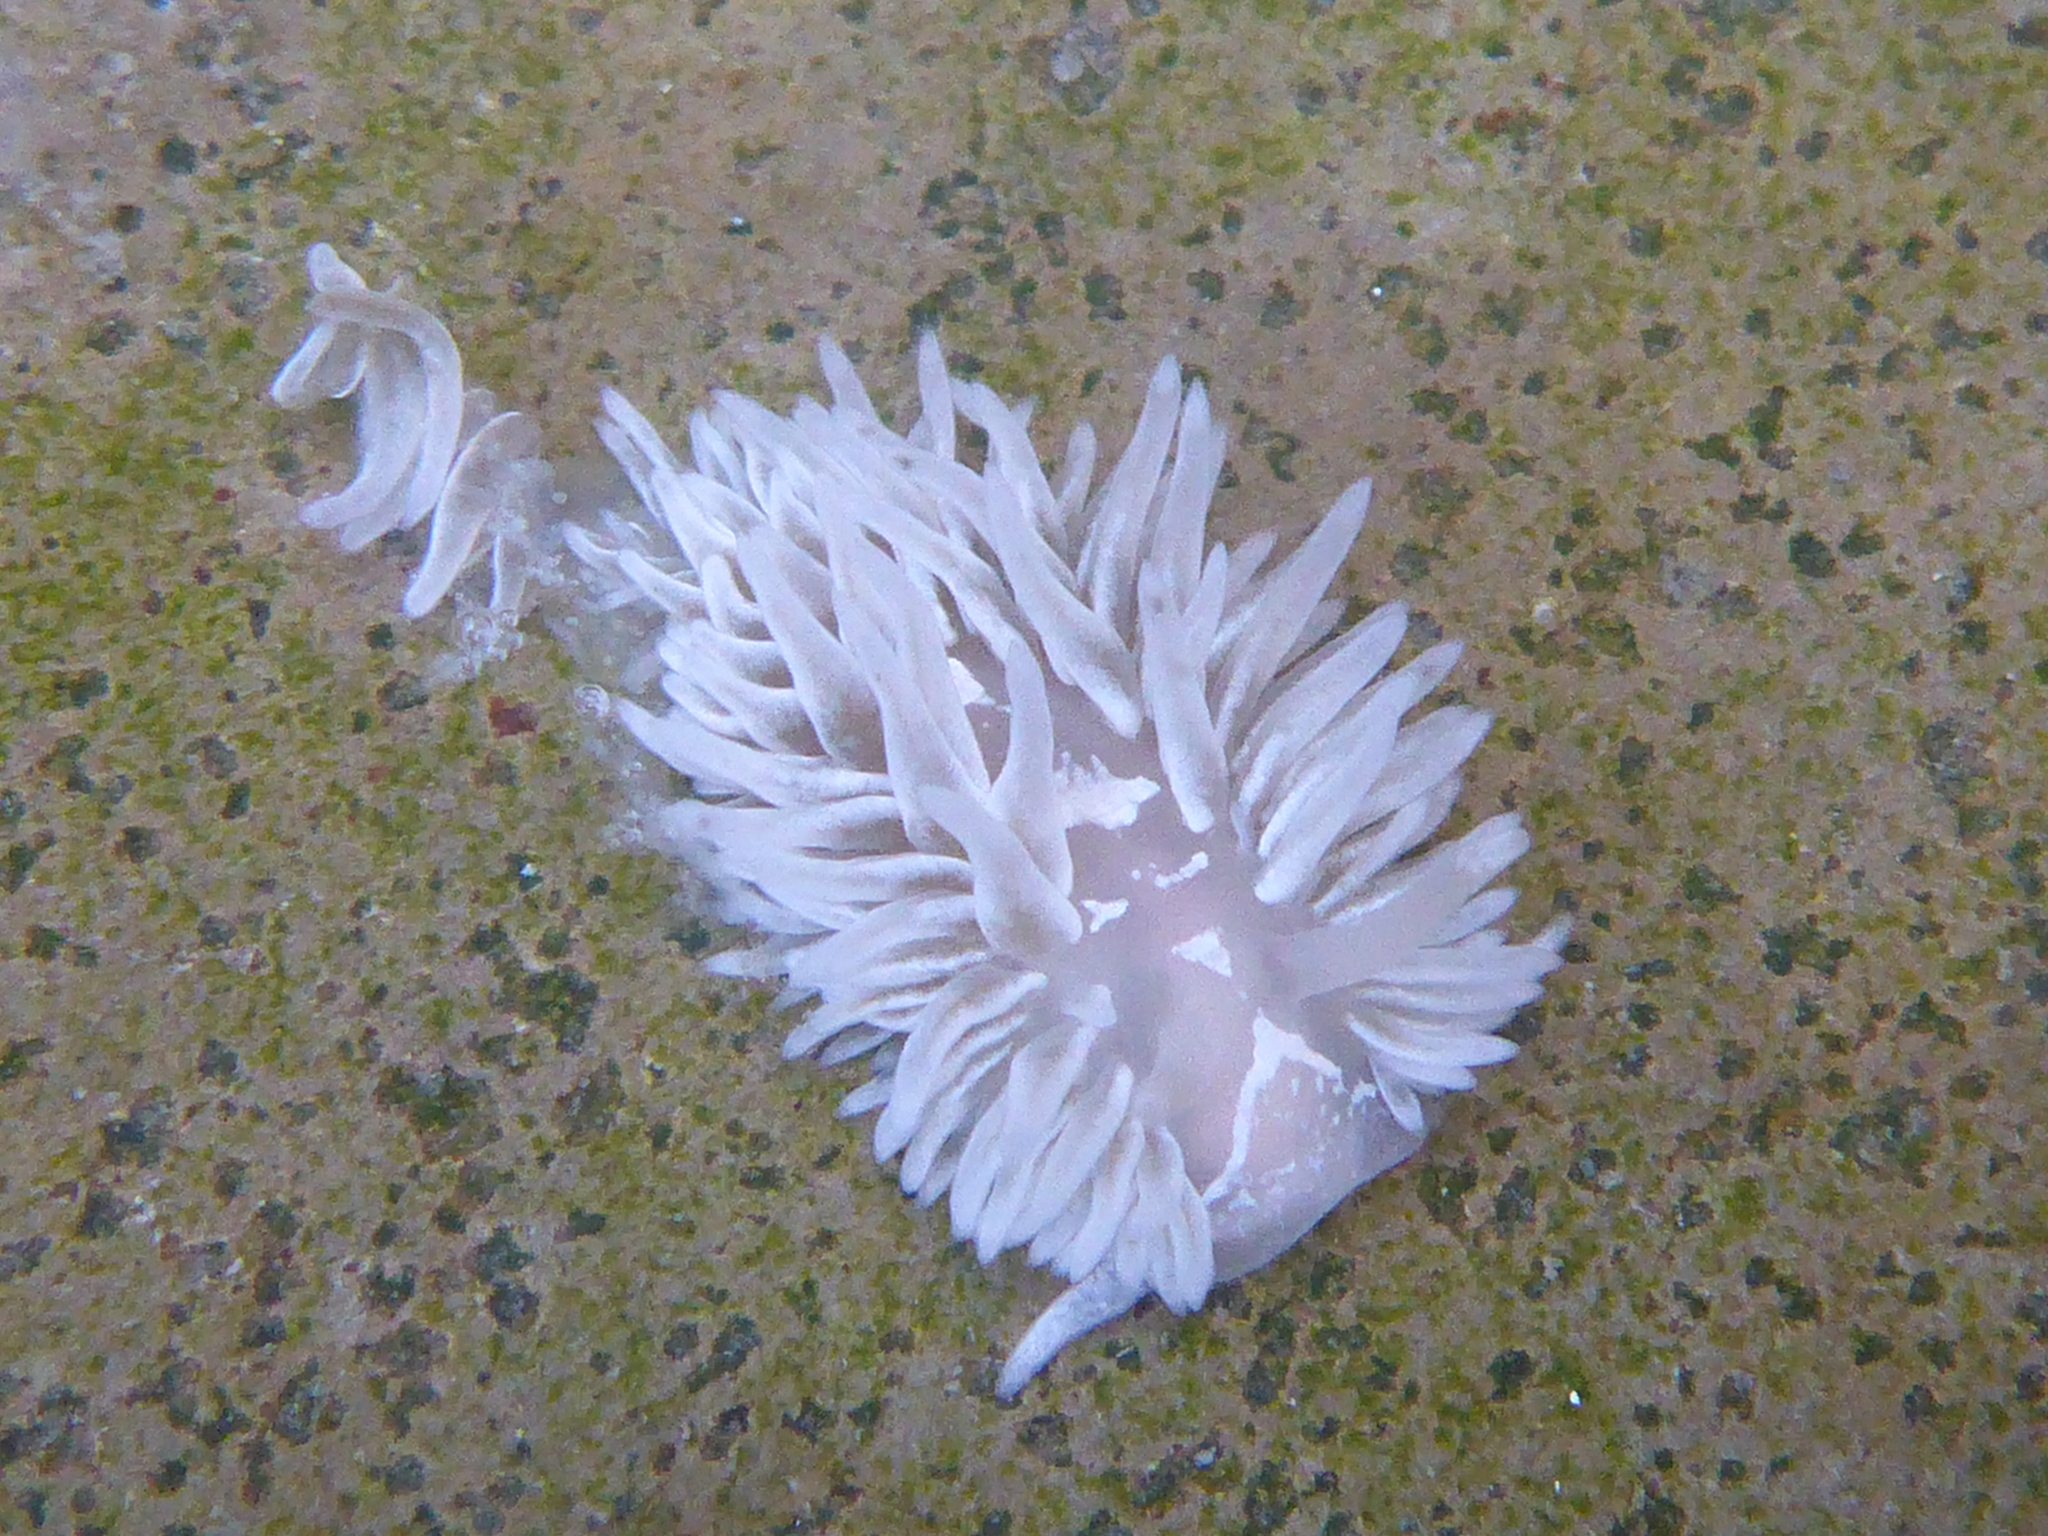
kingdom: Animalia
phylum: Mollusca
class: Gastropoda
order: Nudibranchia
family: Aeolidiidae
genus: Aeolidia
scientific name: Aeolidia loui
